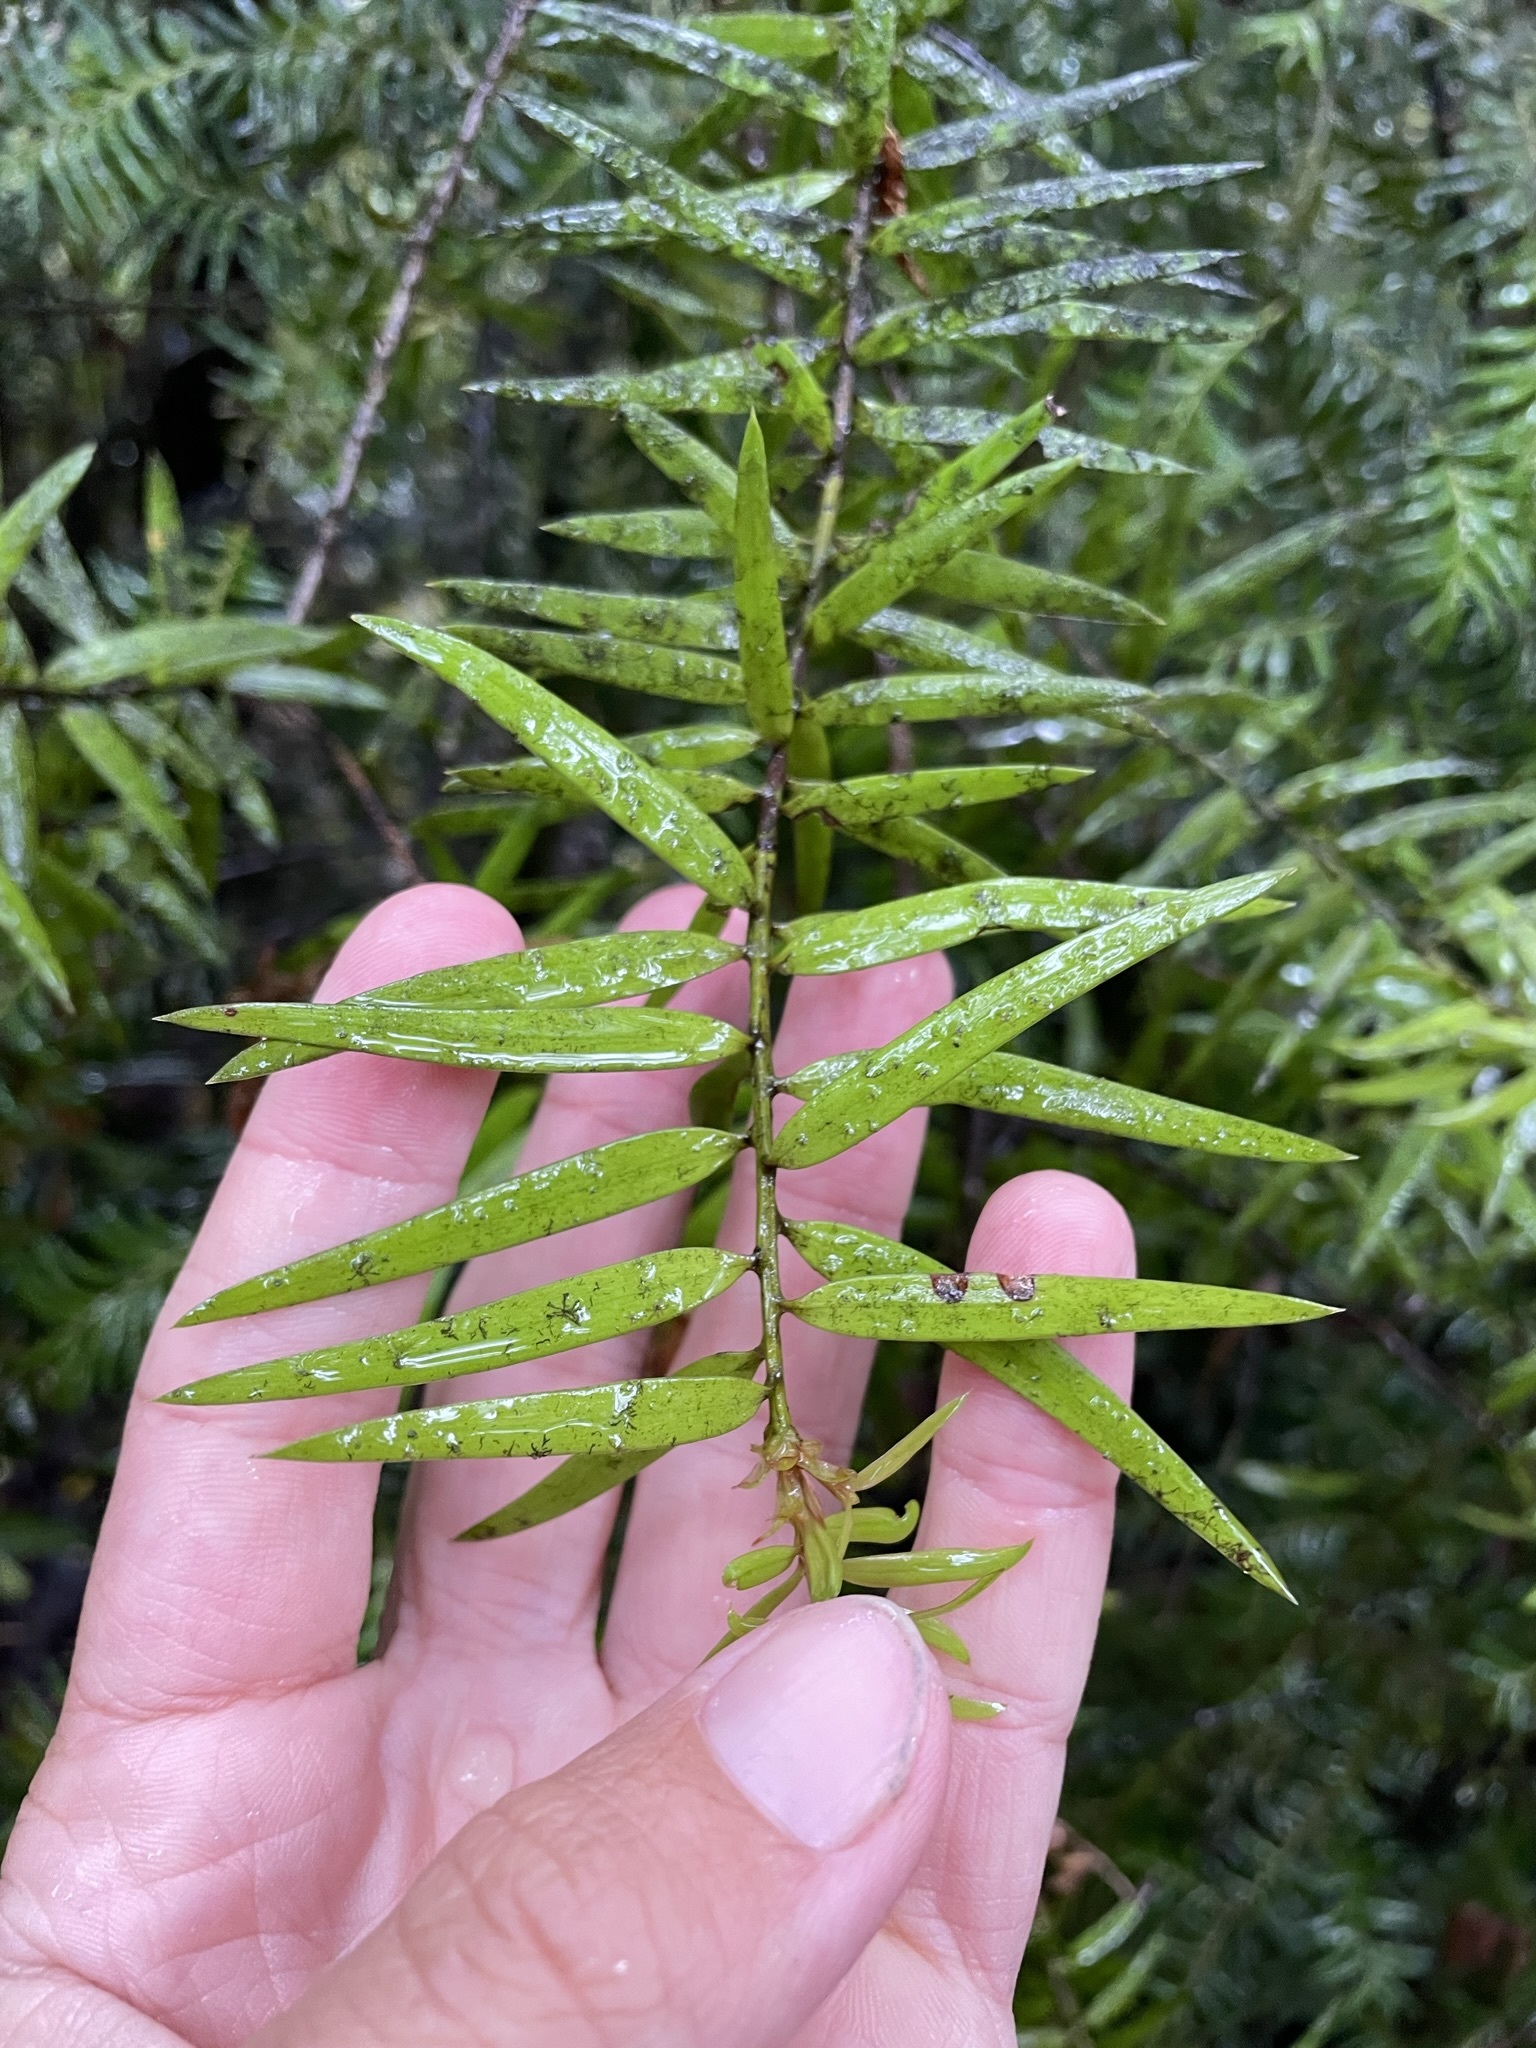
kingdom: Plantae
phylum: Tracheophyta
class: Pinopsida
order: Pinales
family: Podocarpaceae
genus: Podocarpus
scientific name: Podocarpus laetus
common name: Hall's totara
